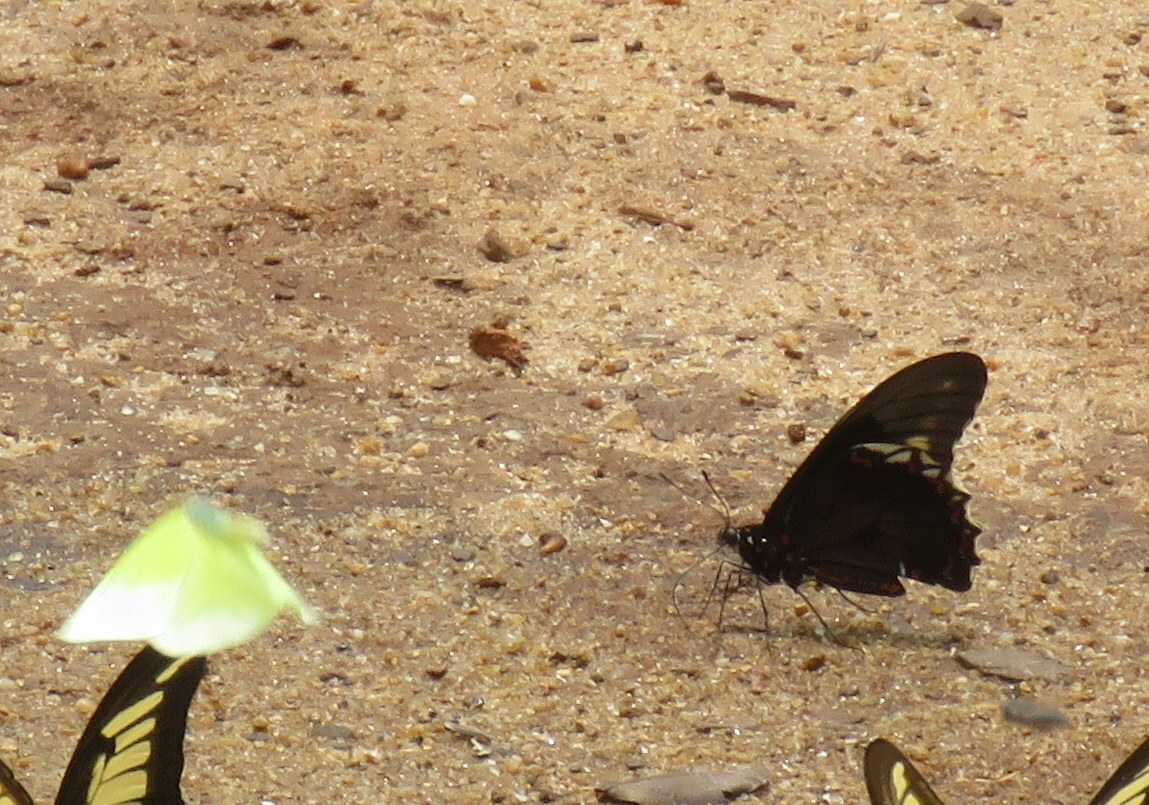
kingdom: Animalia
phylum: Arthropoda
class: Insecta
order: Lepidoptera
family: Papilionidae
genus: Battus
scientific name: Battus polydamas
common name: Polydamas swallowtail
